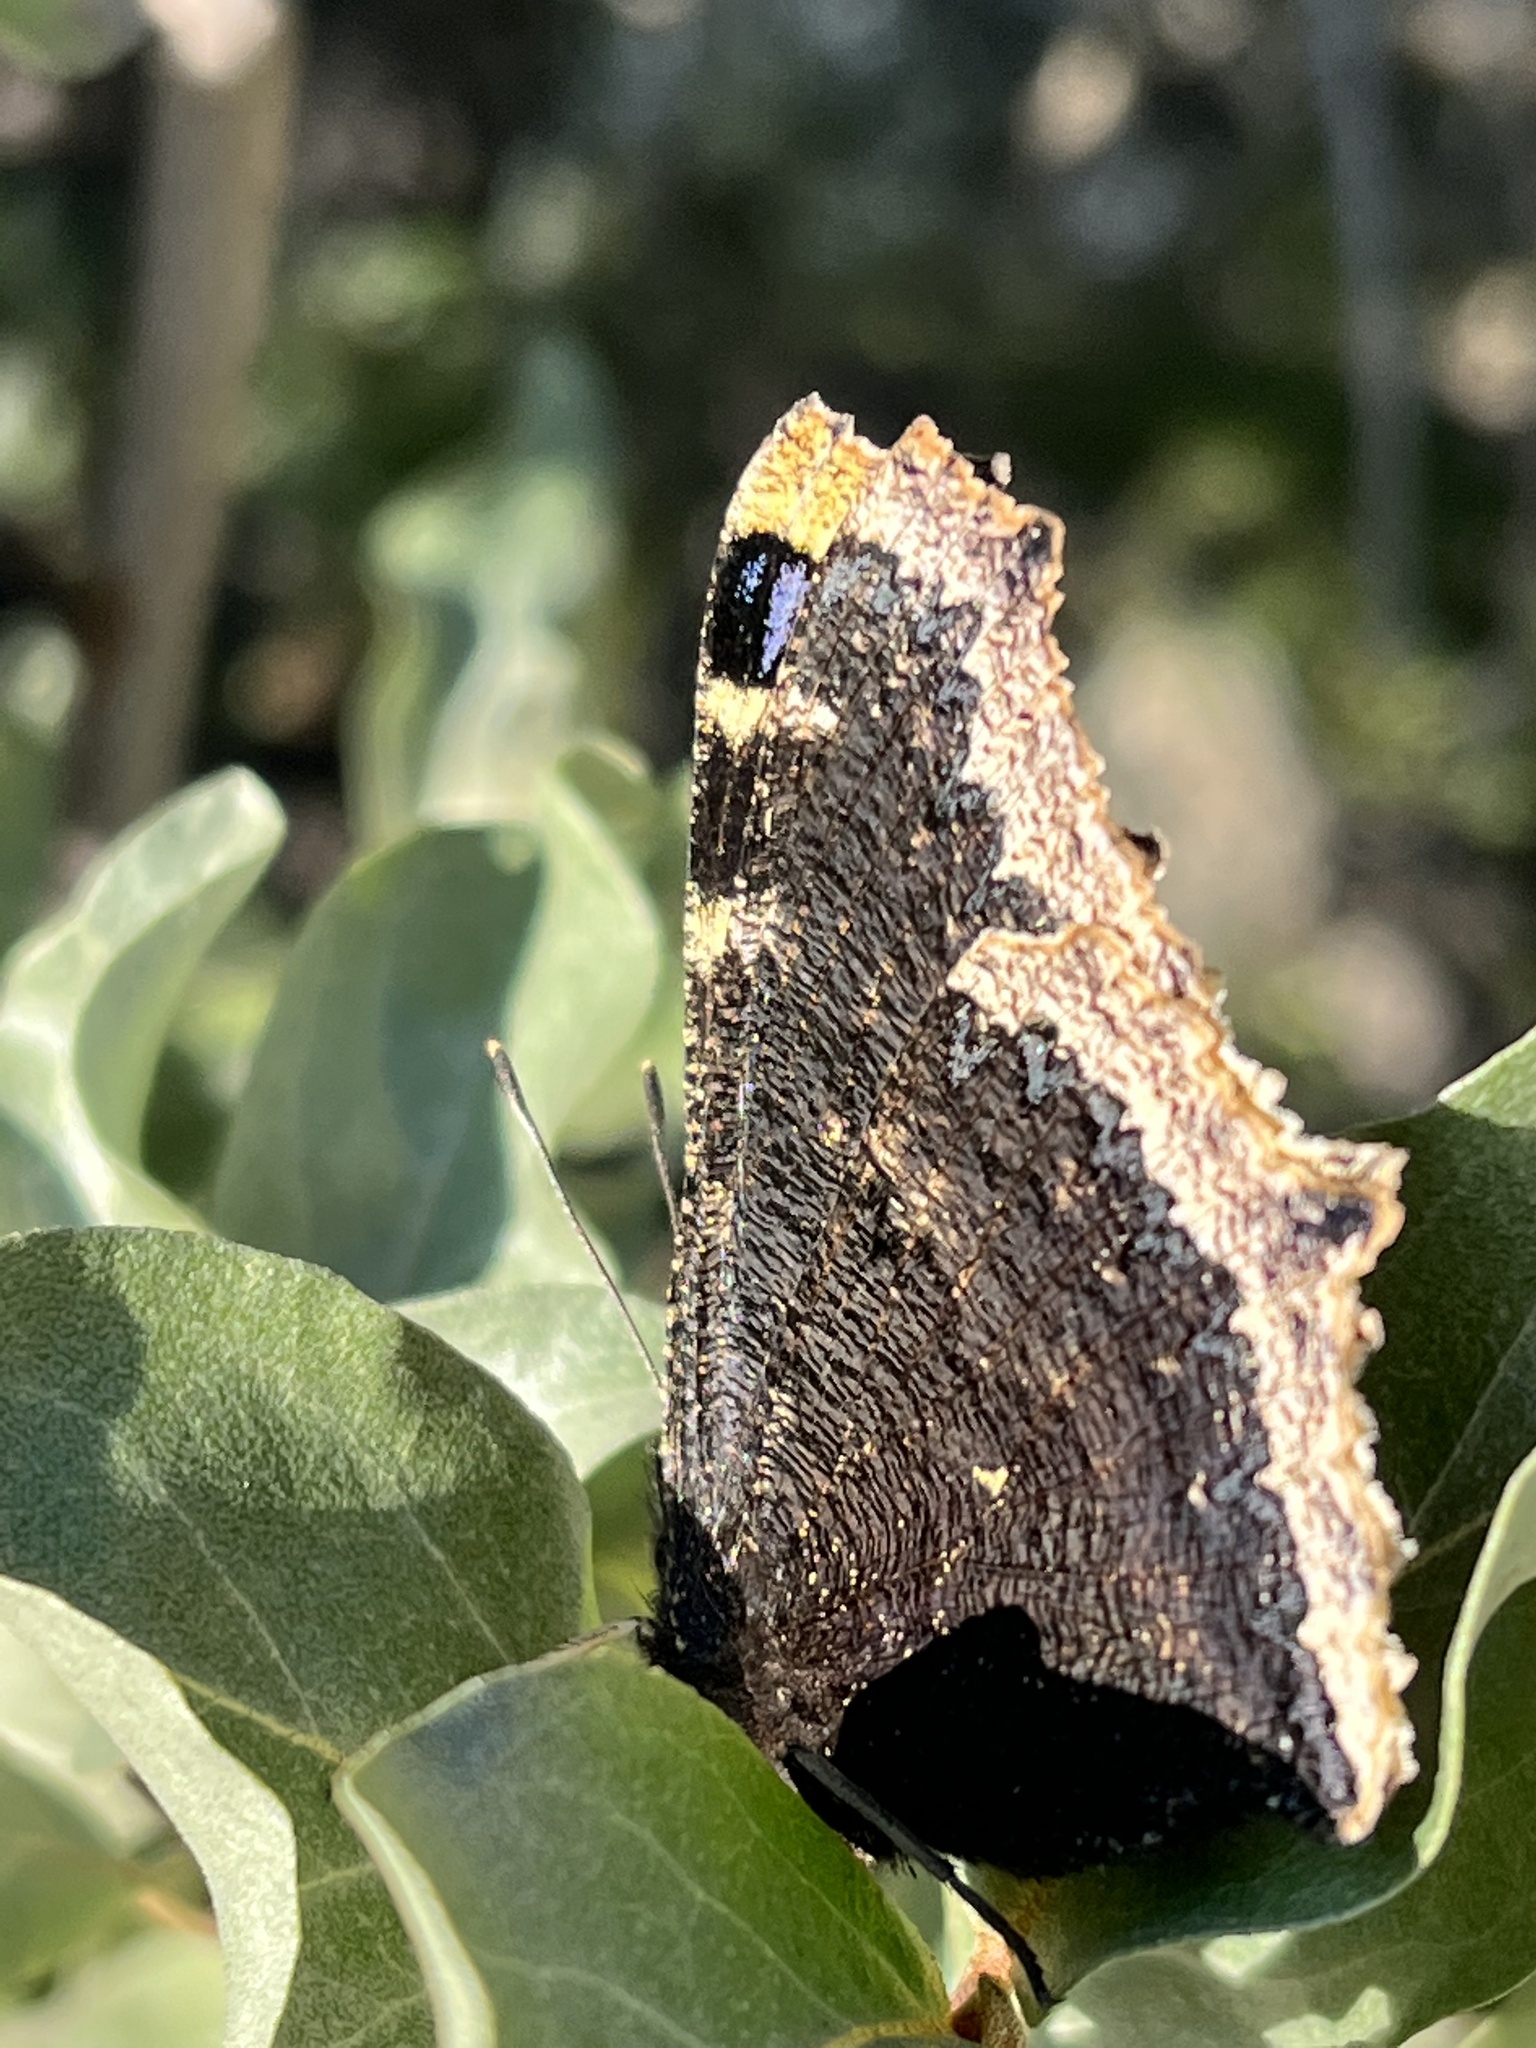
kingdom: Animalia
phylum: Arthropoda
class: Insecta
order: Lepidoptera
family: Nymphalidae
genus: Nymphalis
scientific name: Nymphalis antiopa
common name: Camberwell beauty
